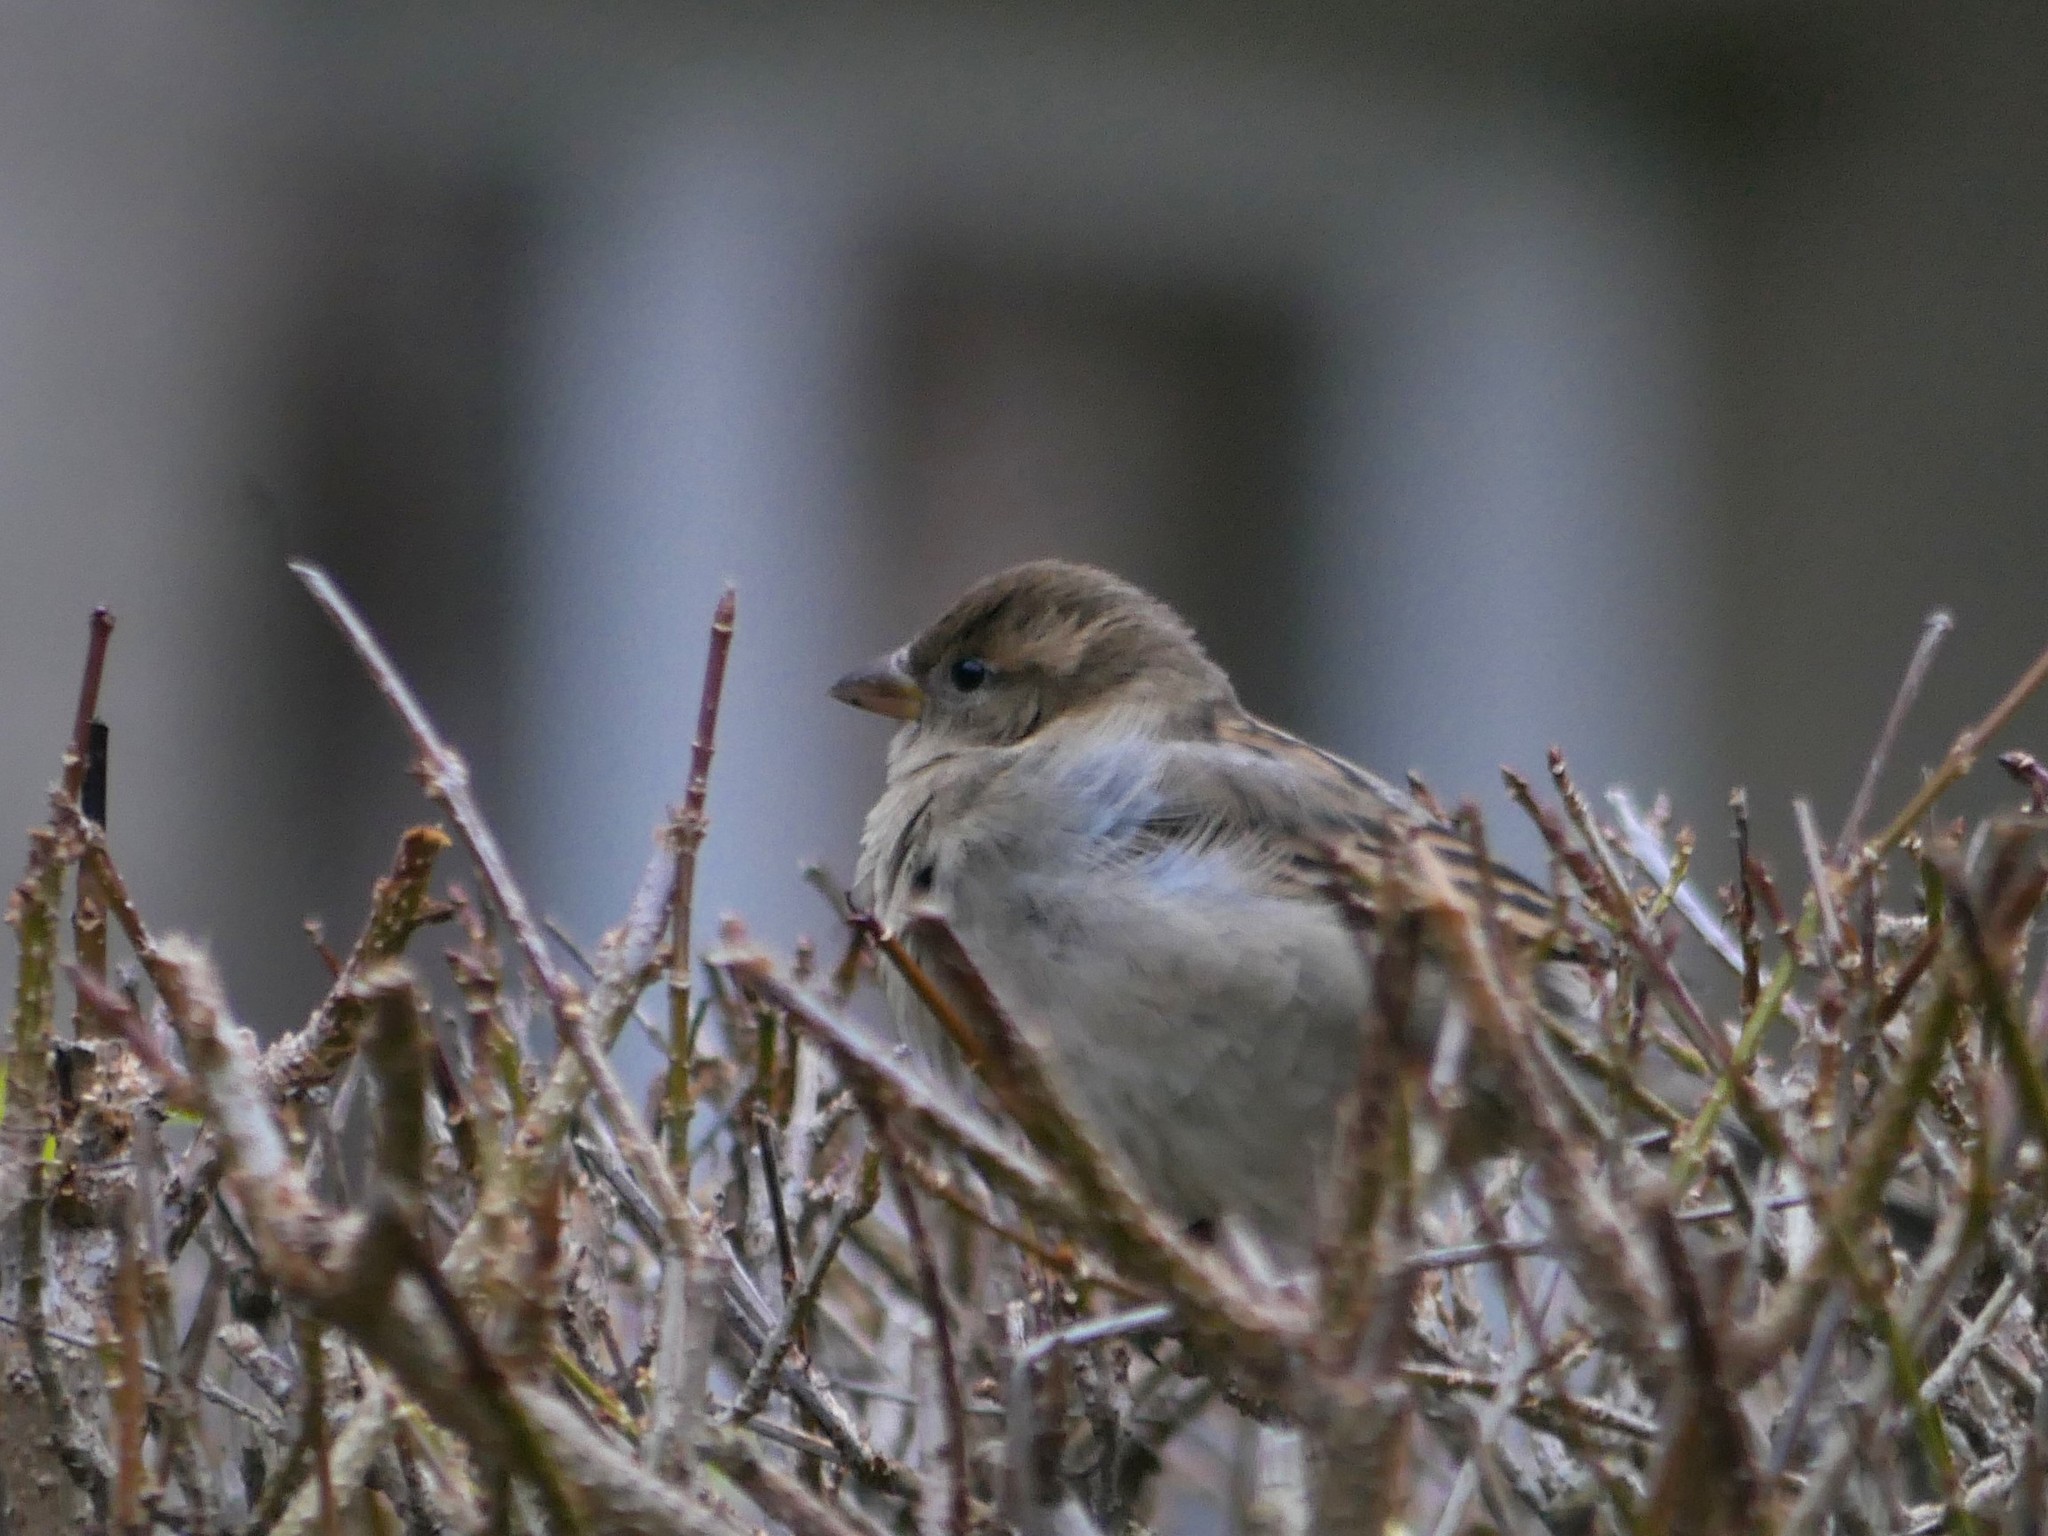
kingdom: Animalia
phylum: Chordata
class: Aves
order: Passeriformes
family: Passeridae
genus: Passer
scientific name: Passer domesticus
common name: House sparrow
